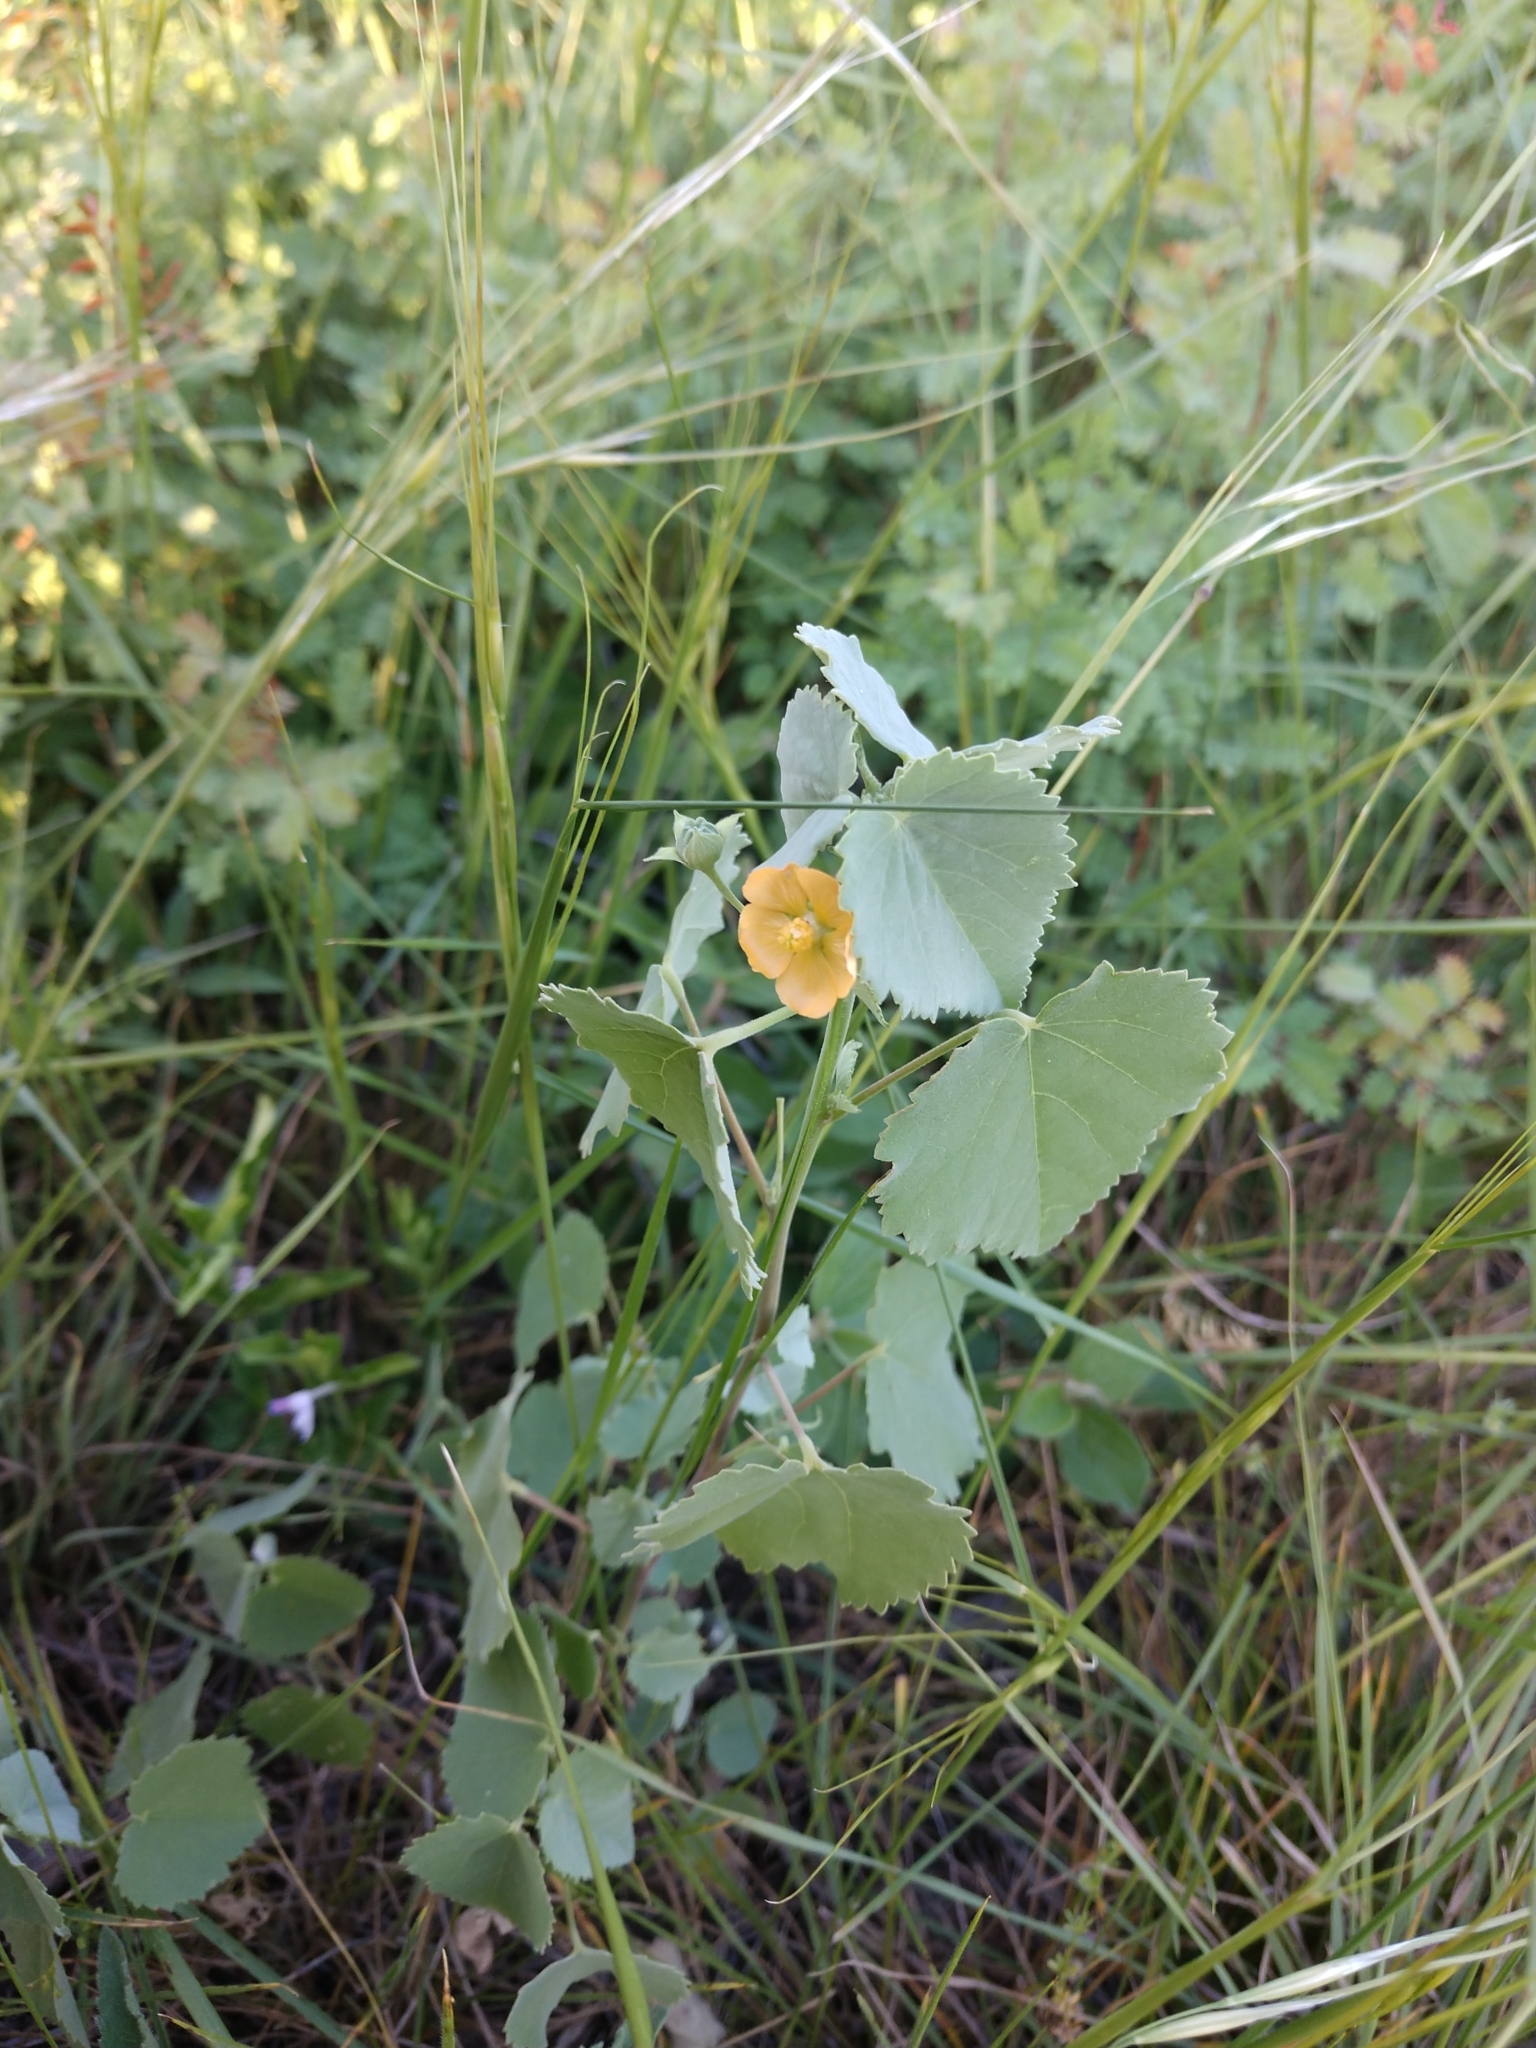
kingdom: Plantae
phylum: Tracheophyta
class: Magnoliopsida
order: Malvales
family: Malvaceae
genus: Abutilon
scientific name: Abutilon fruticosum
